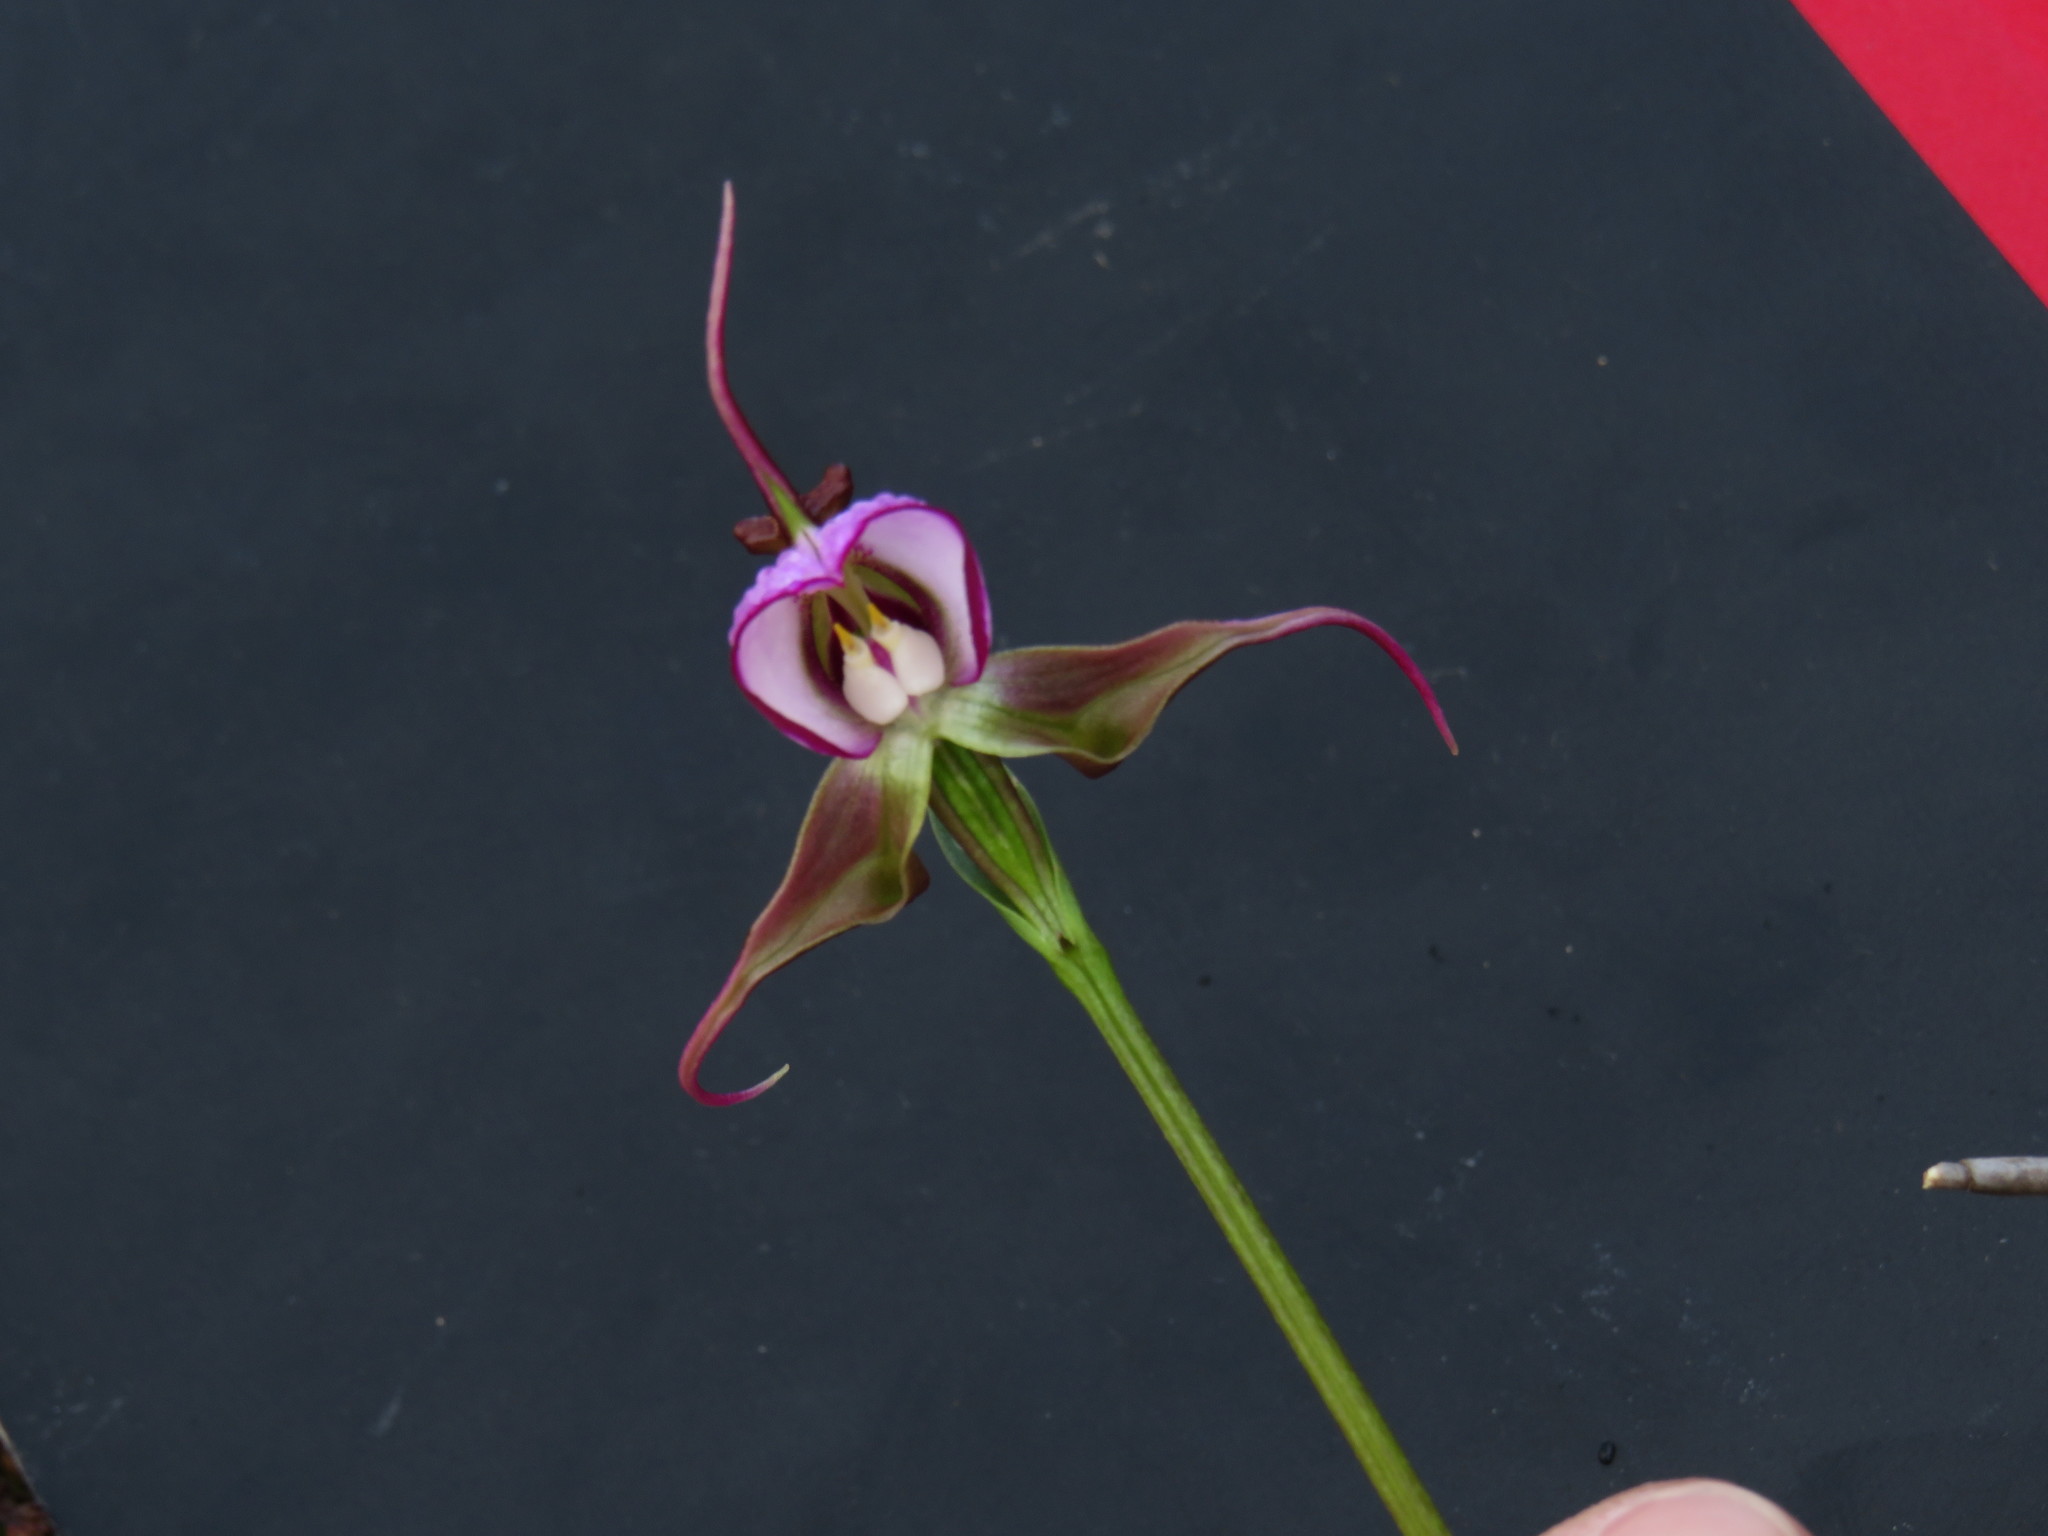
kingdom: Plantae
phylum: Tracheophyta
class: Liliopsida
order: Asparagales
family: Orchidaceae
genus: Disperis
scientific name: Disperis capensis
